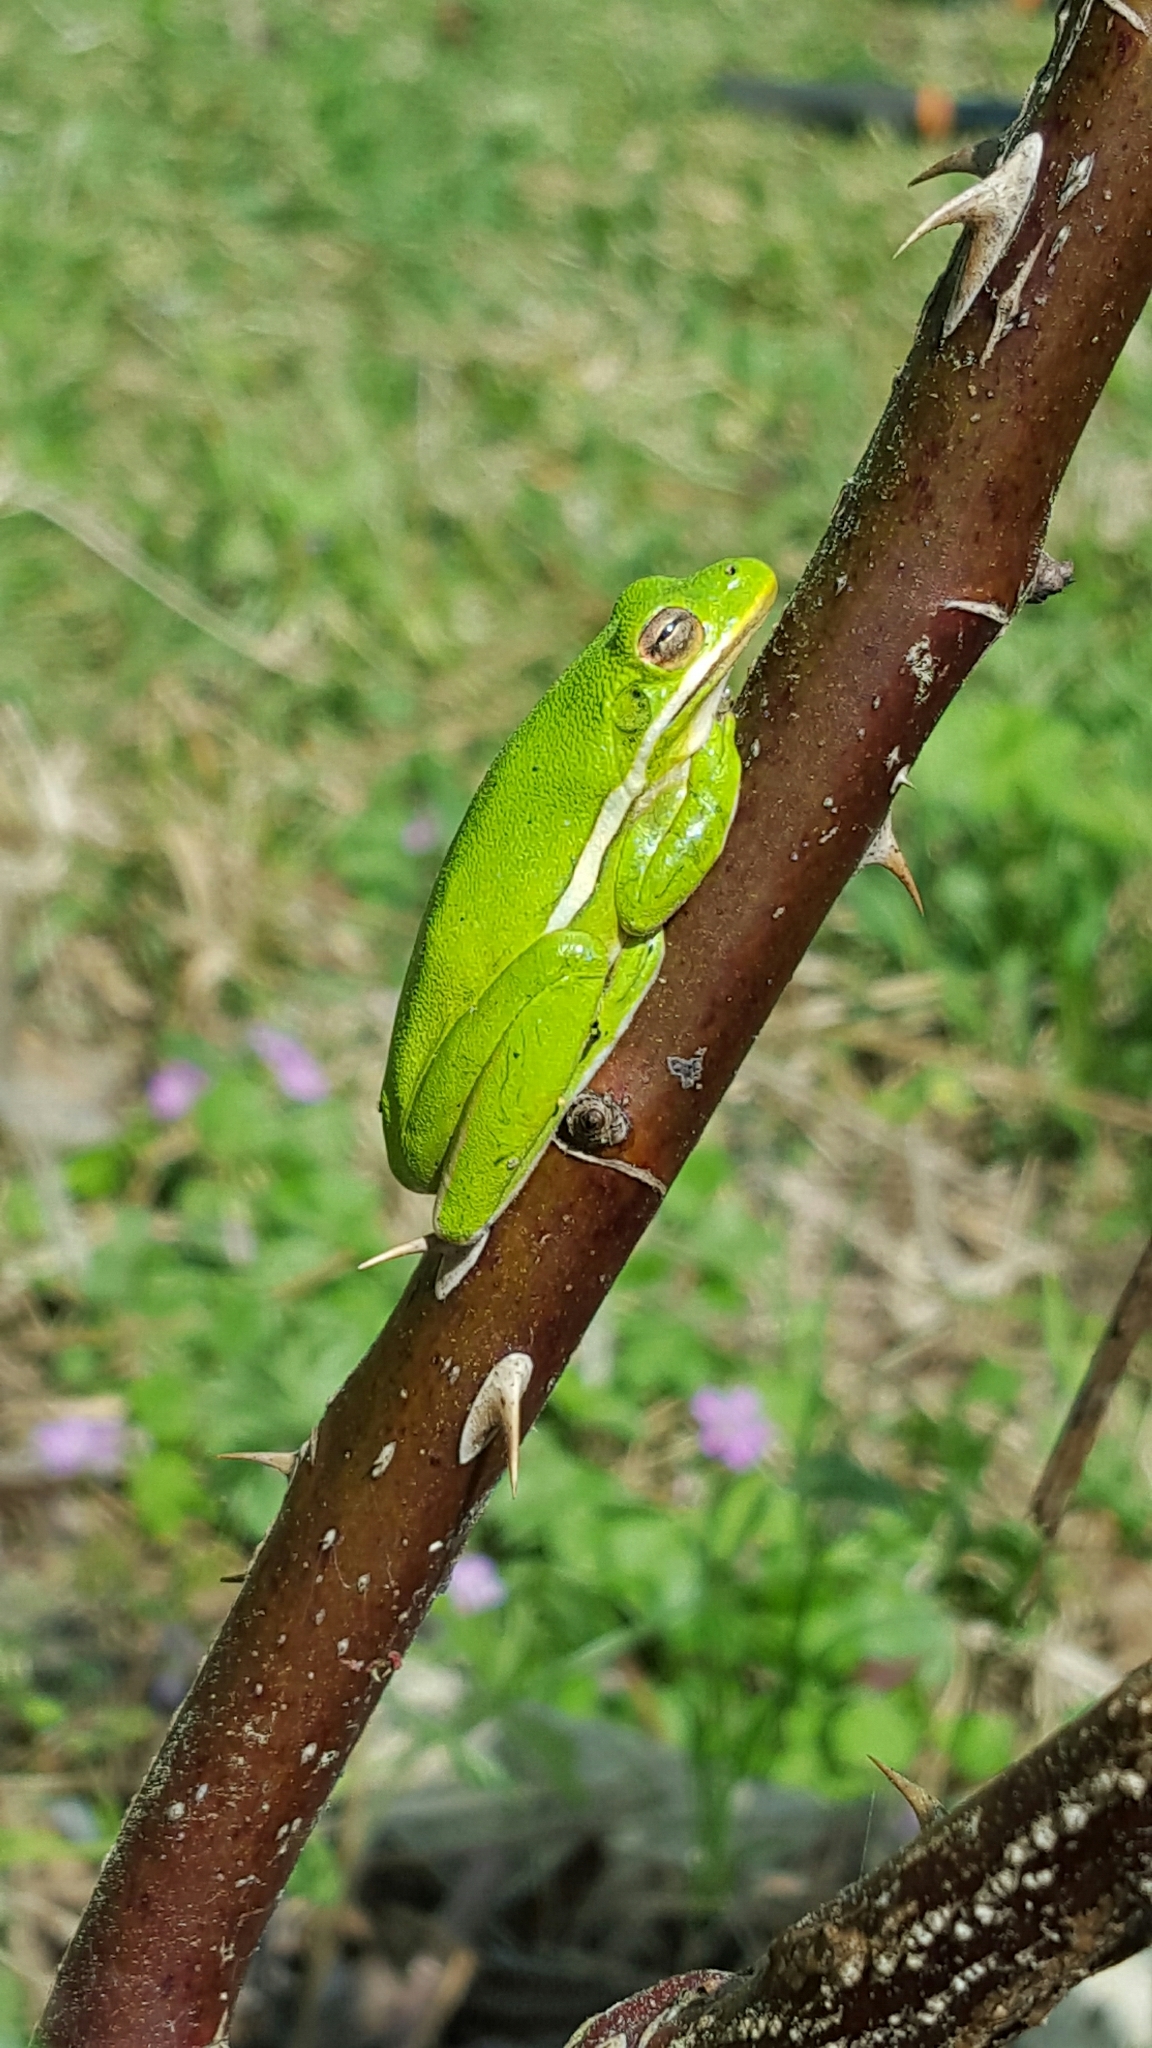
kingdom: Animalia
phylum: Chordata
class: Amphibia
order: Anura
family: Hylidae
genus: Dryophytes
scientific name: Dryophytes cinereus
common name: Green treefrog
